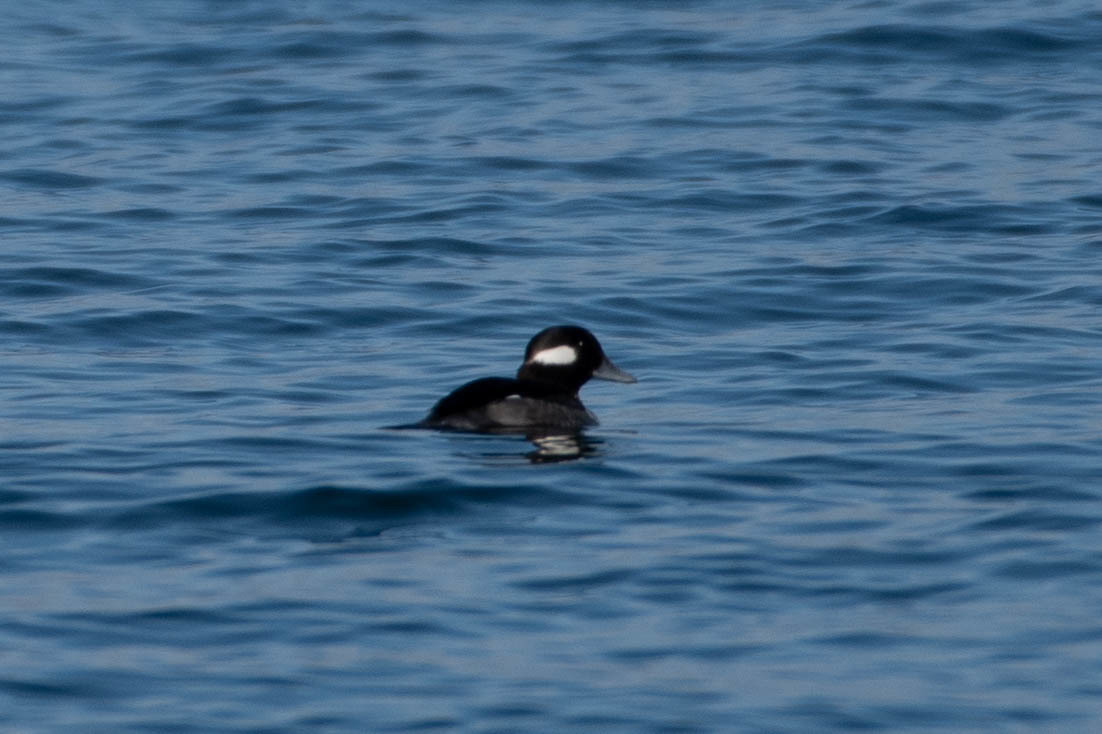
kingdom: Animalia
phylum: Chordata
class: Aves
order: Anseriformes
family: Anatidae
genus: Bucephala
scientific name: Bucephala albeola
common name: Bufflehead
